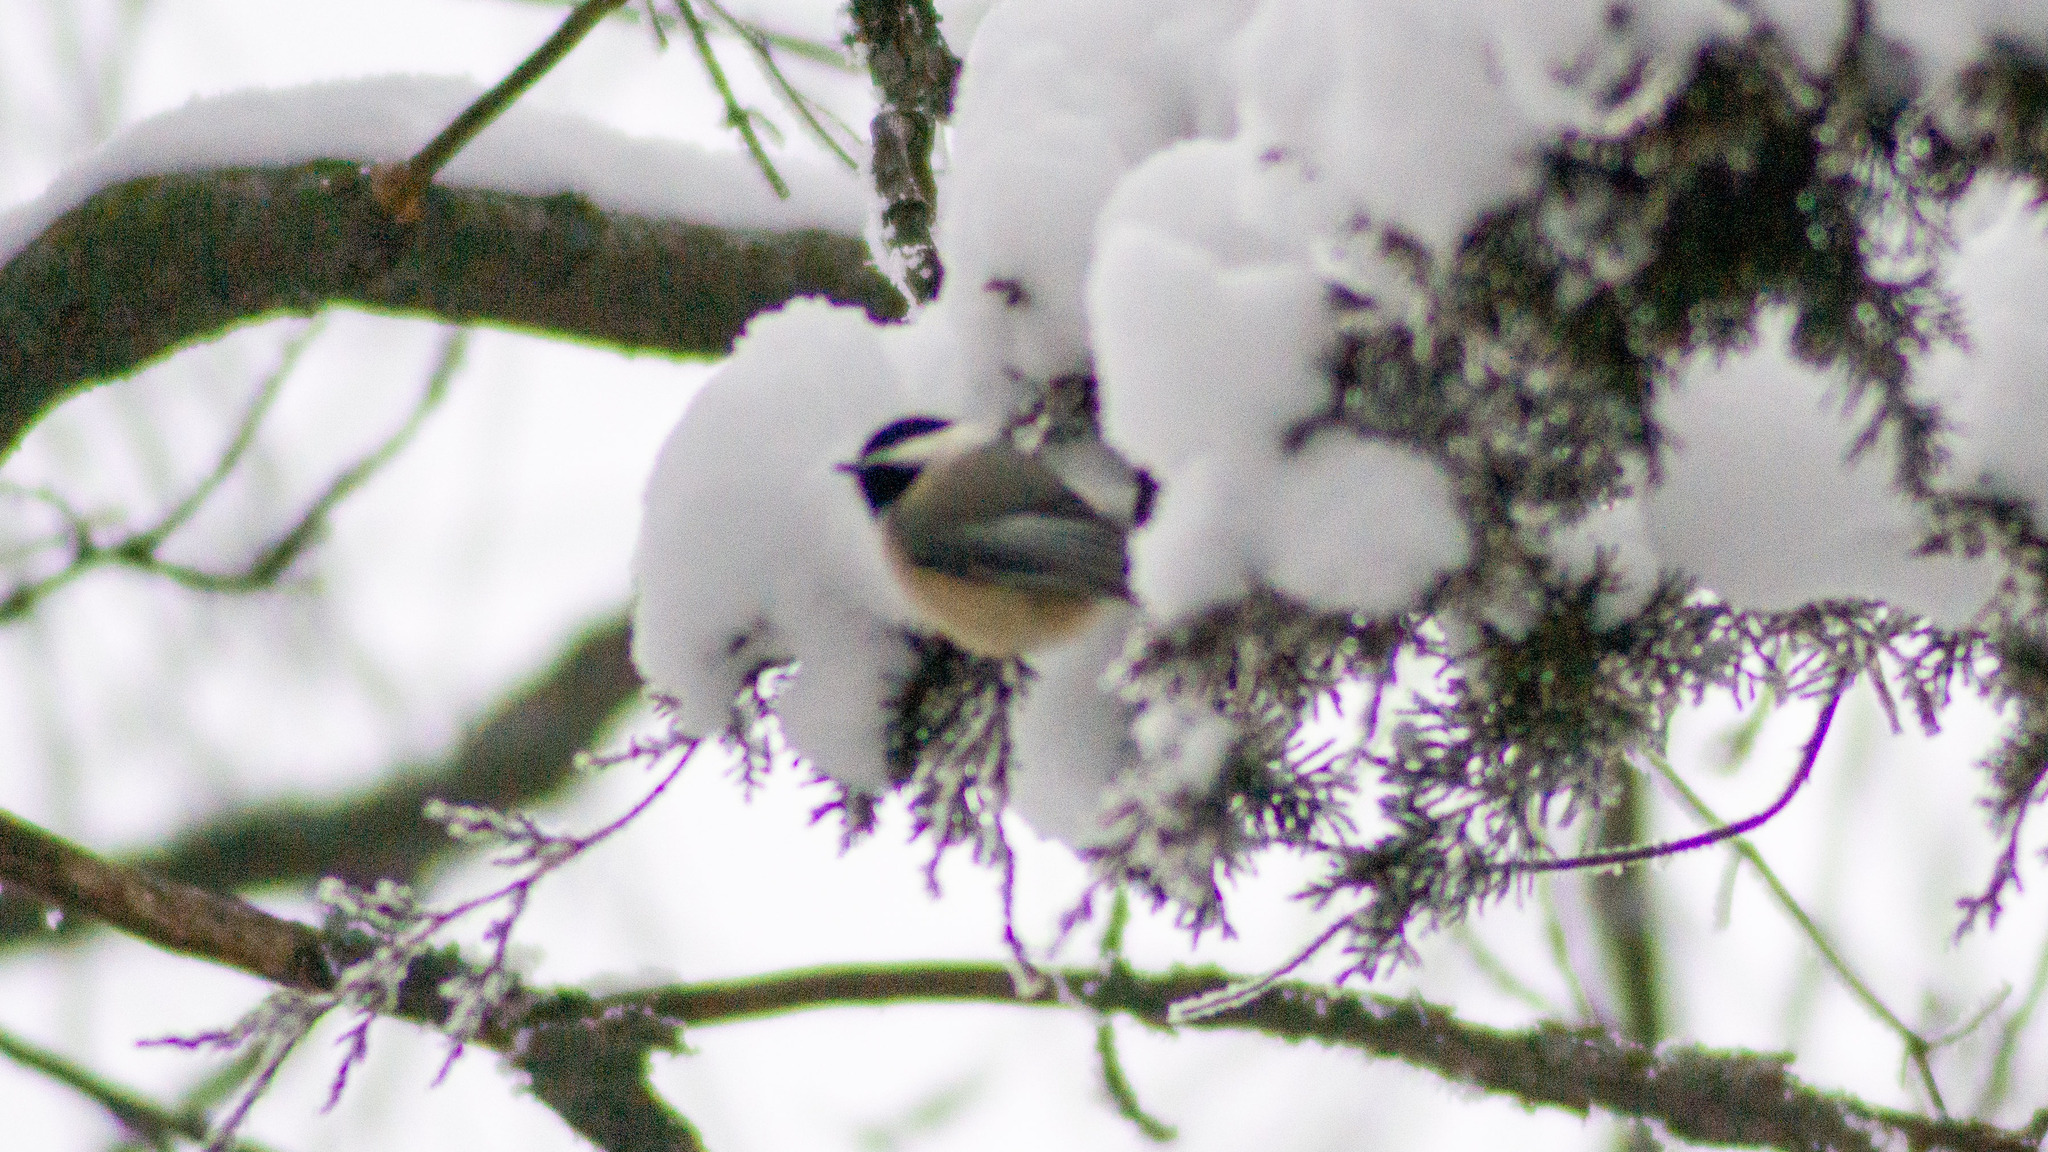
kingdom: Animalia
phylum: Chordata
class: Aves
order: Passeriformes
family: Paridae
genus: Poecile
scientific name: Poecile atricapillus
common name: Black-capped chickadee
